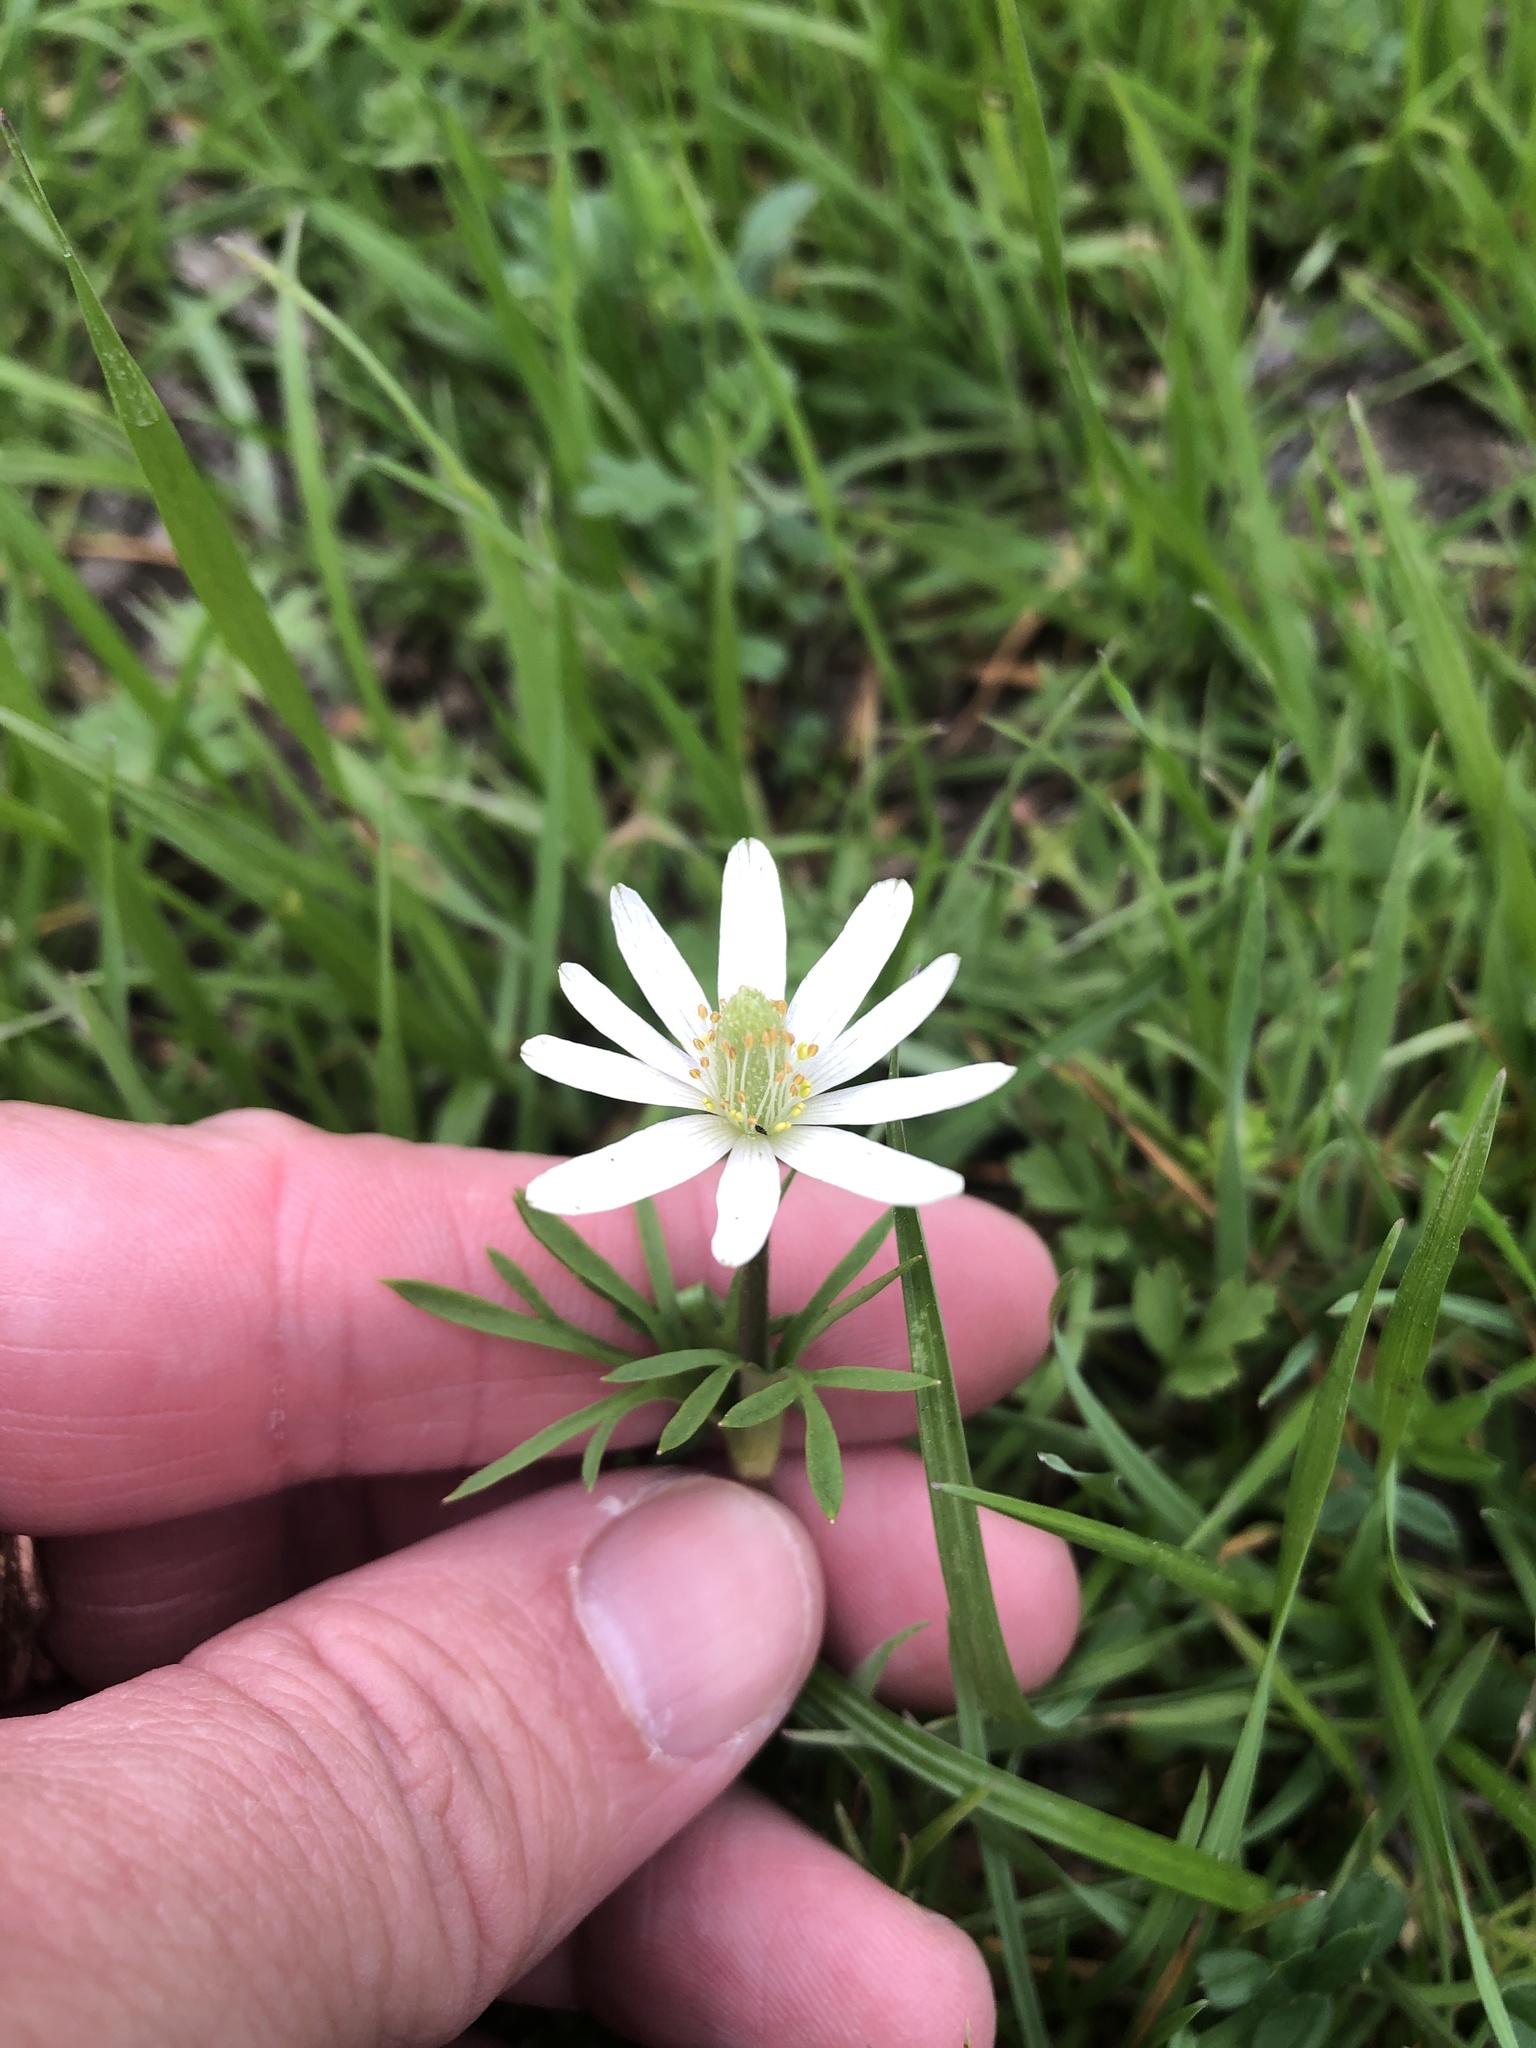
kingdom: Plantae
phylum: Tracheophyta
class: Magnoliopsida
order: Ranunculales
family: Ranunculaceae
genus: Anemone
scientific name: Anemone berlandieri
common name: Ten-petal anemone
